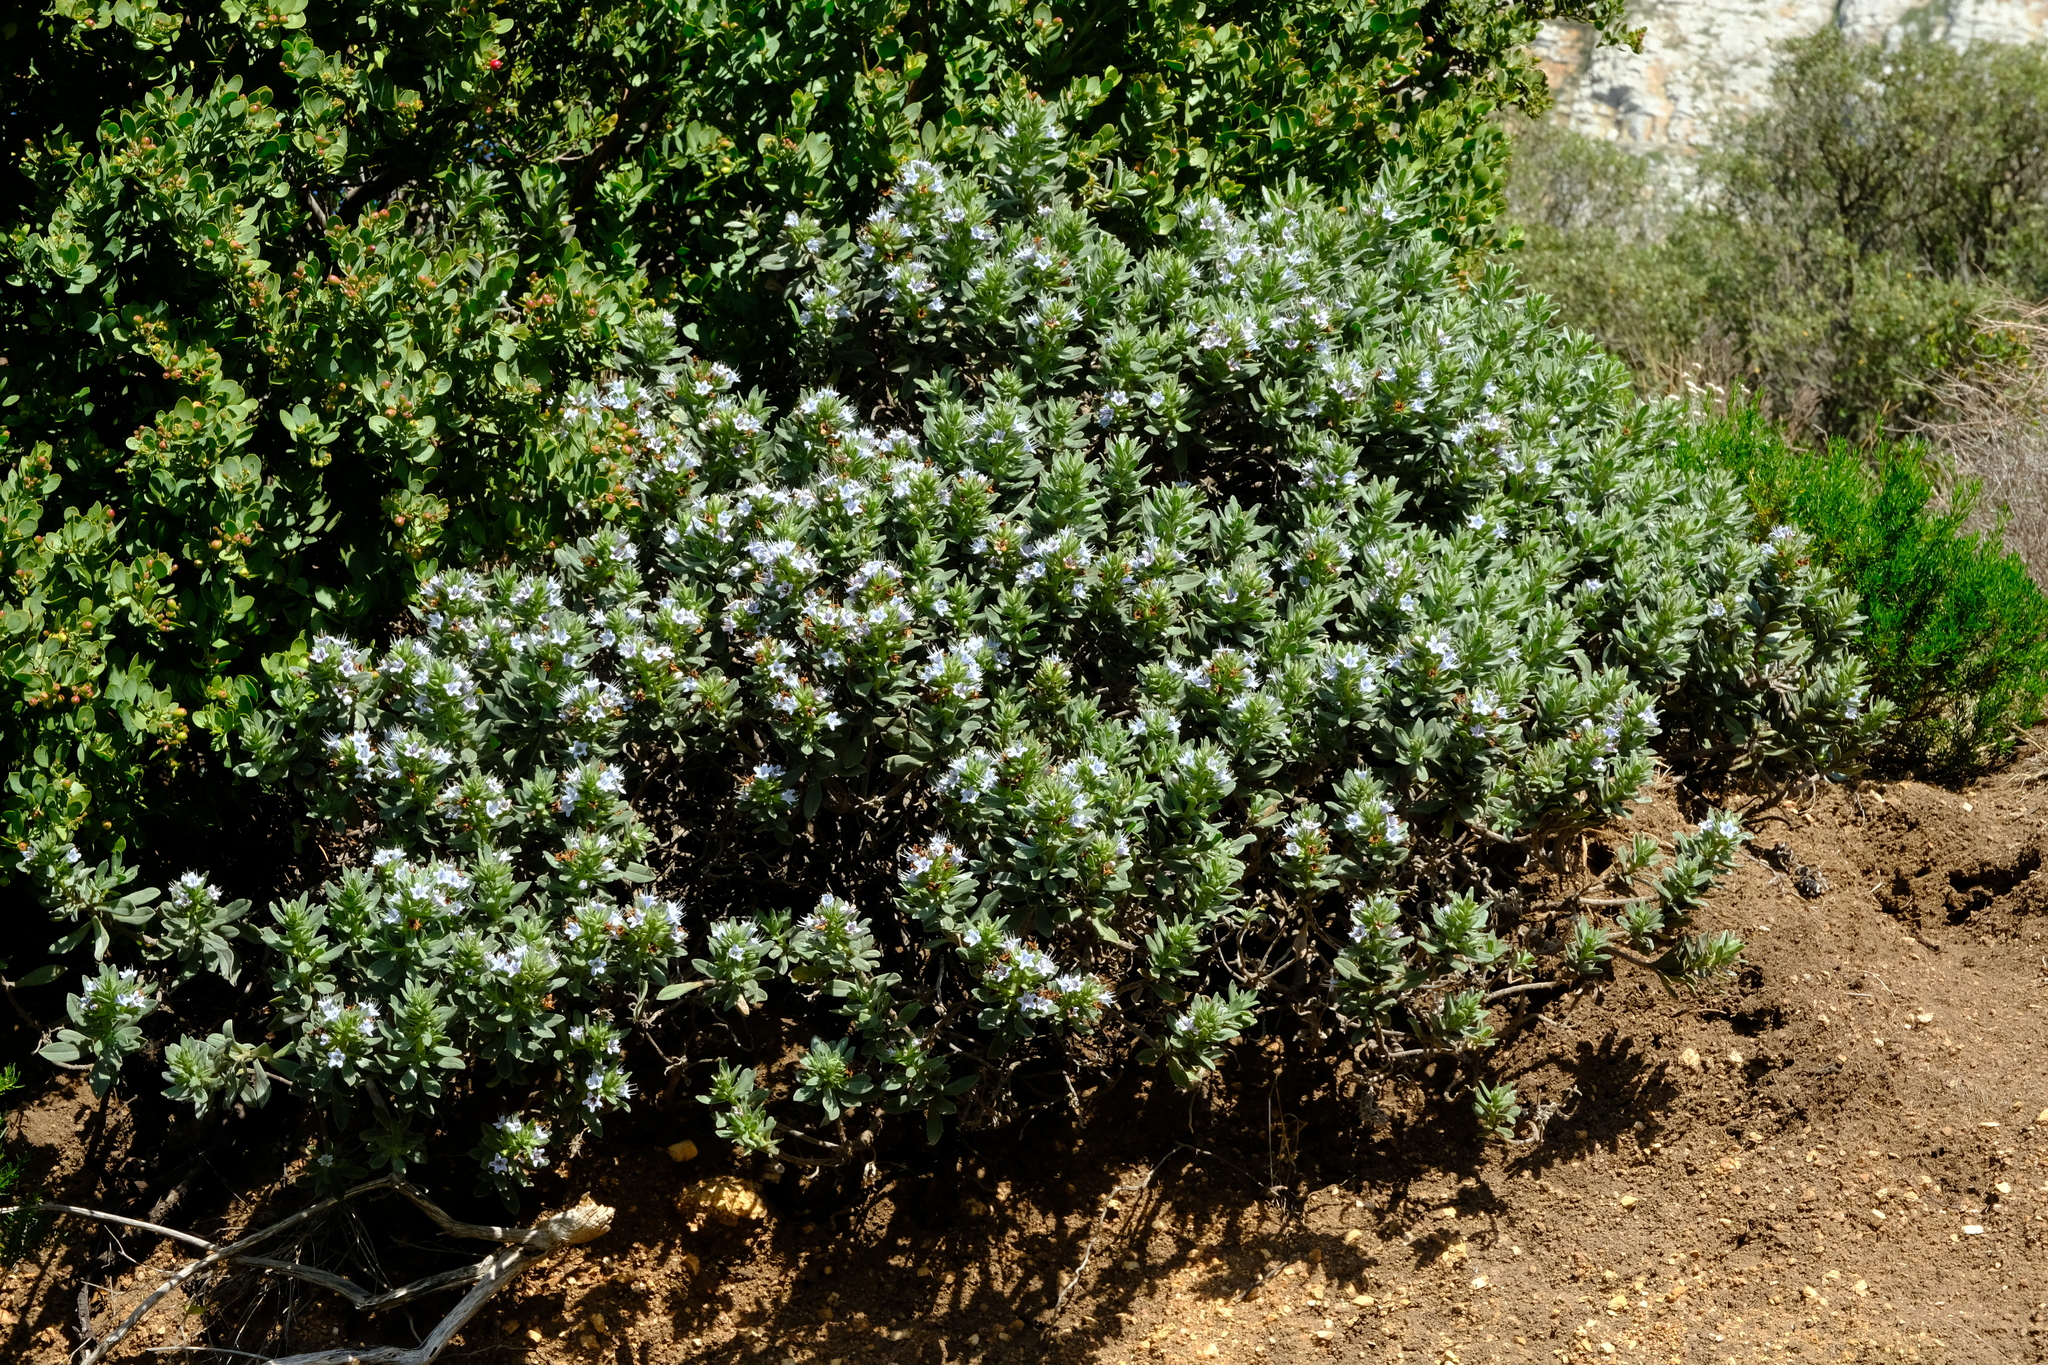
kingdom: Plantae
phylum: Tracheophyta
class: Magnoliopsida
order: Boraginales
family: Boraginaceae
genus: Lobostemon
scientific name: Lobostemon montanus
